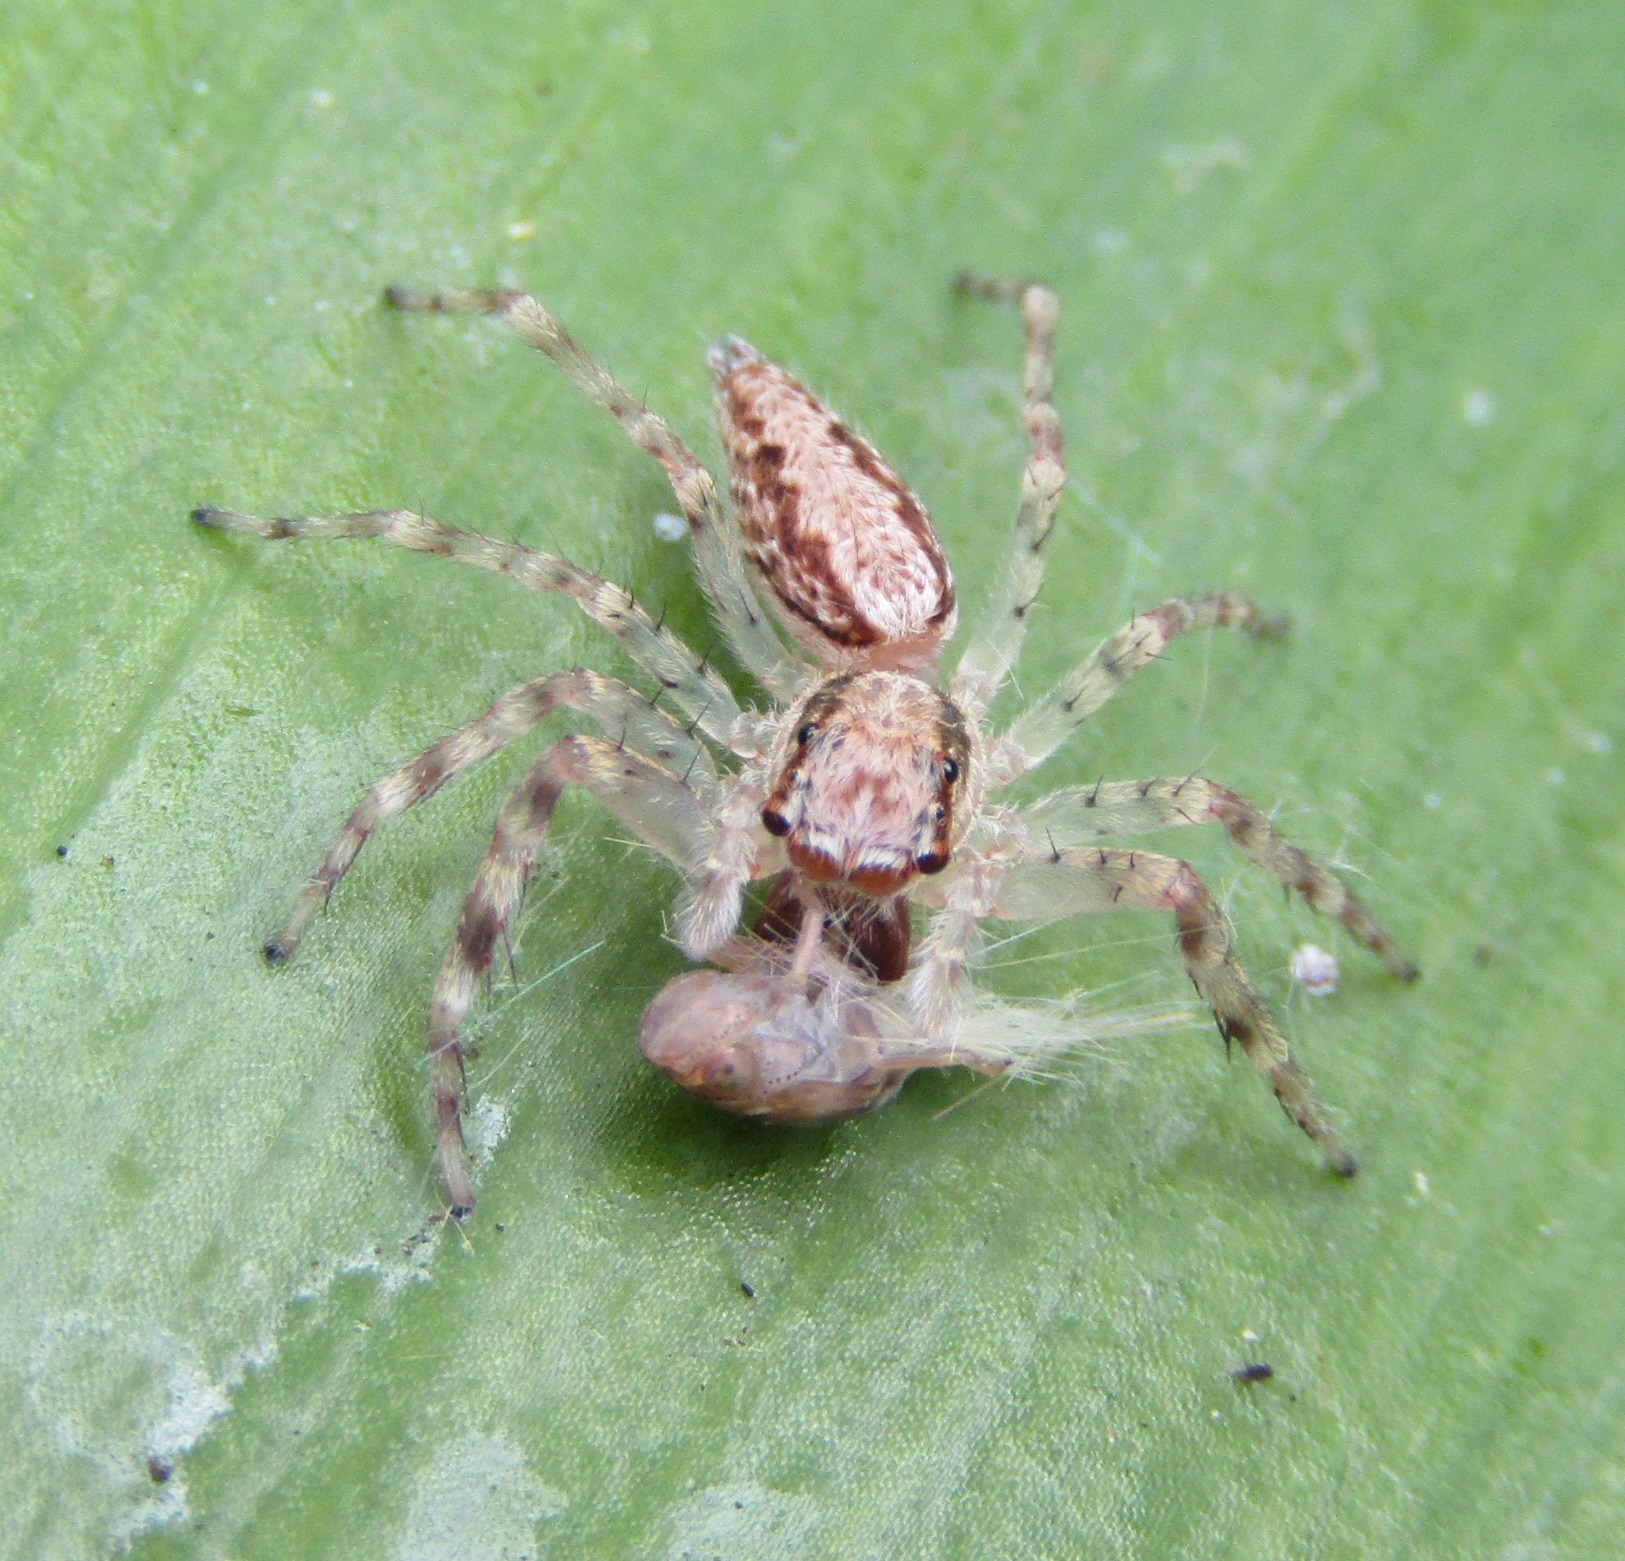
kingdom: Animalia
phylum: Arthropoda
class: Arachnida
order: Araneae
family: Salticidae
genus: Helpis
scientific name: Helpis minitabunda
